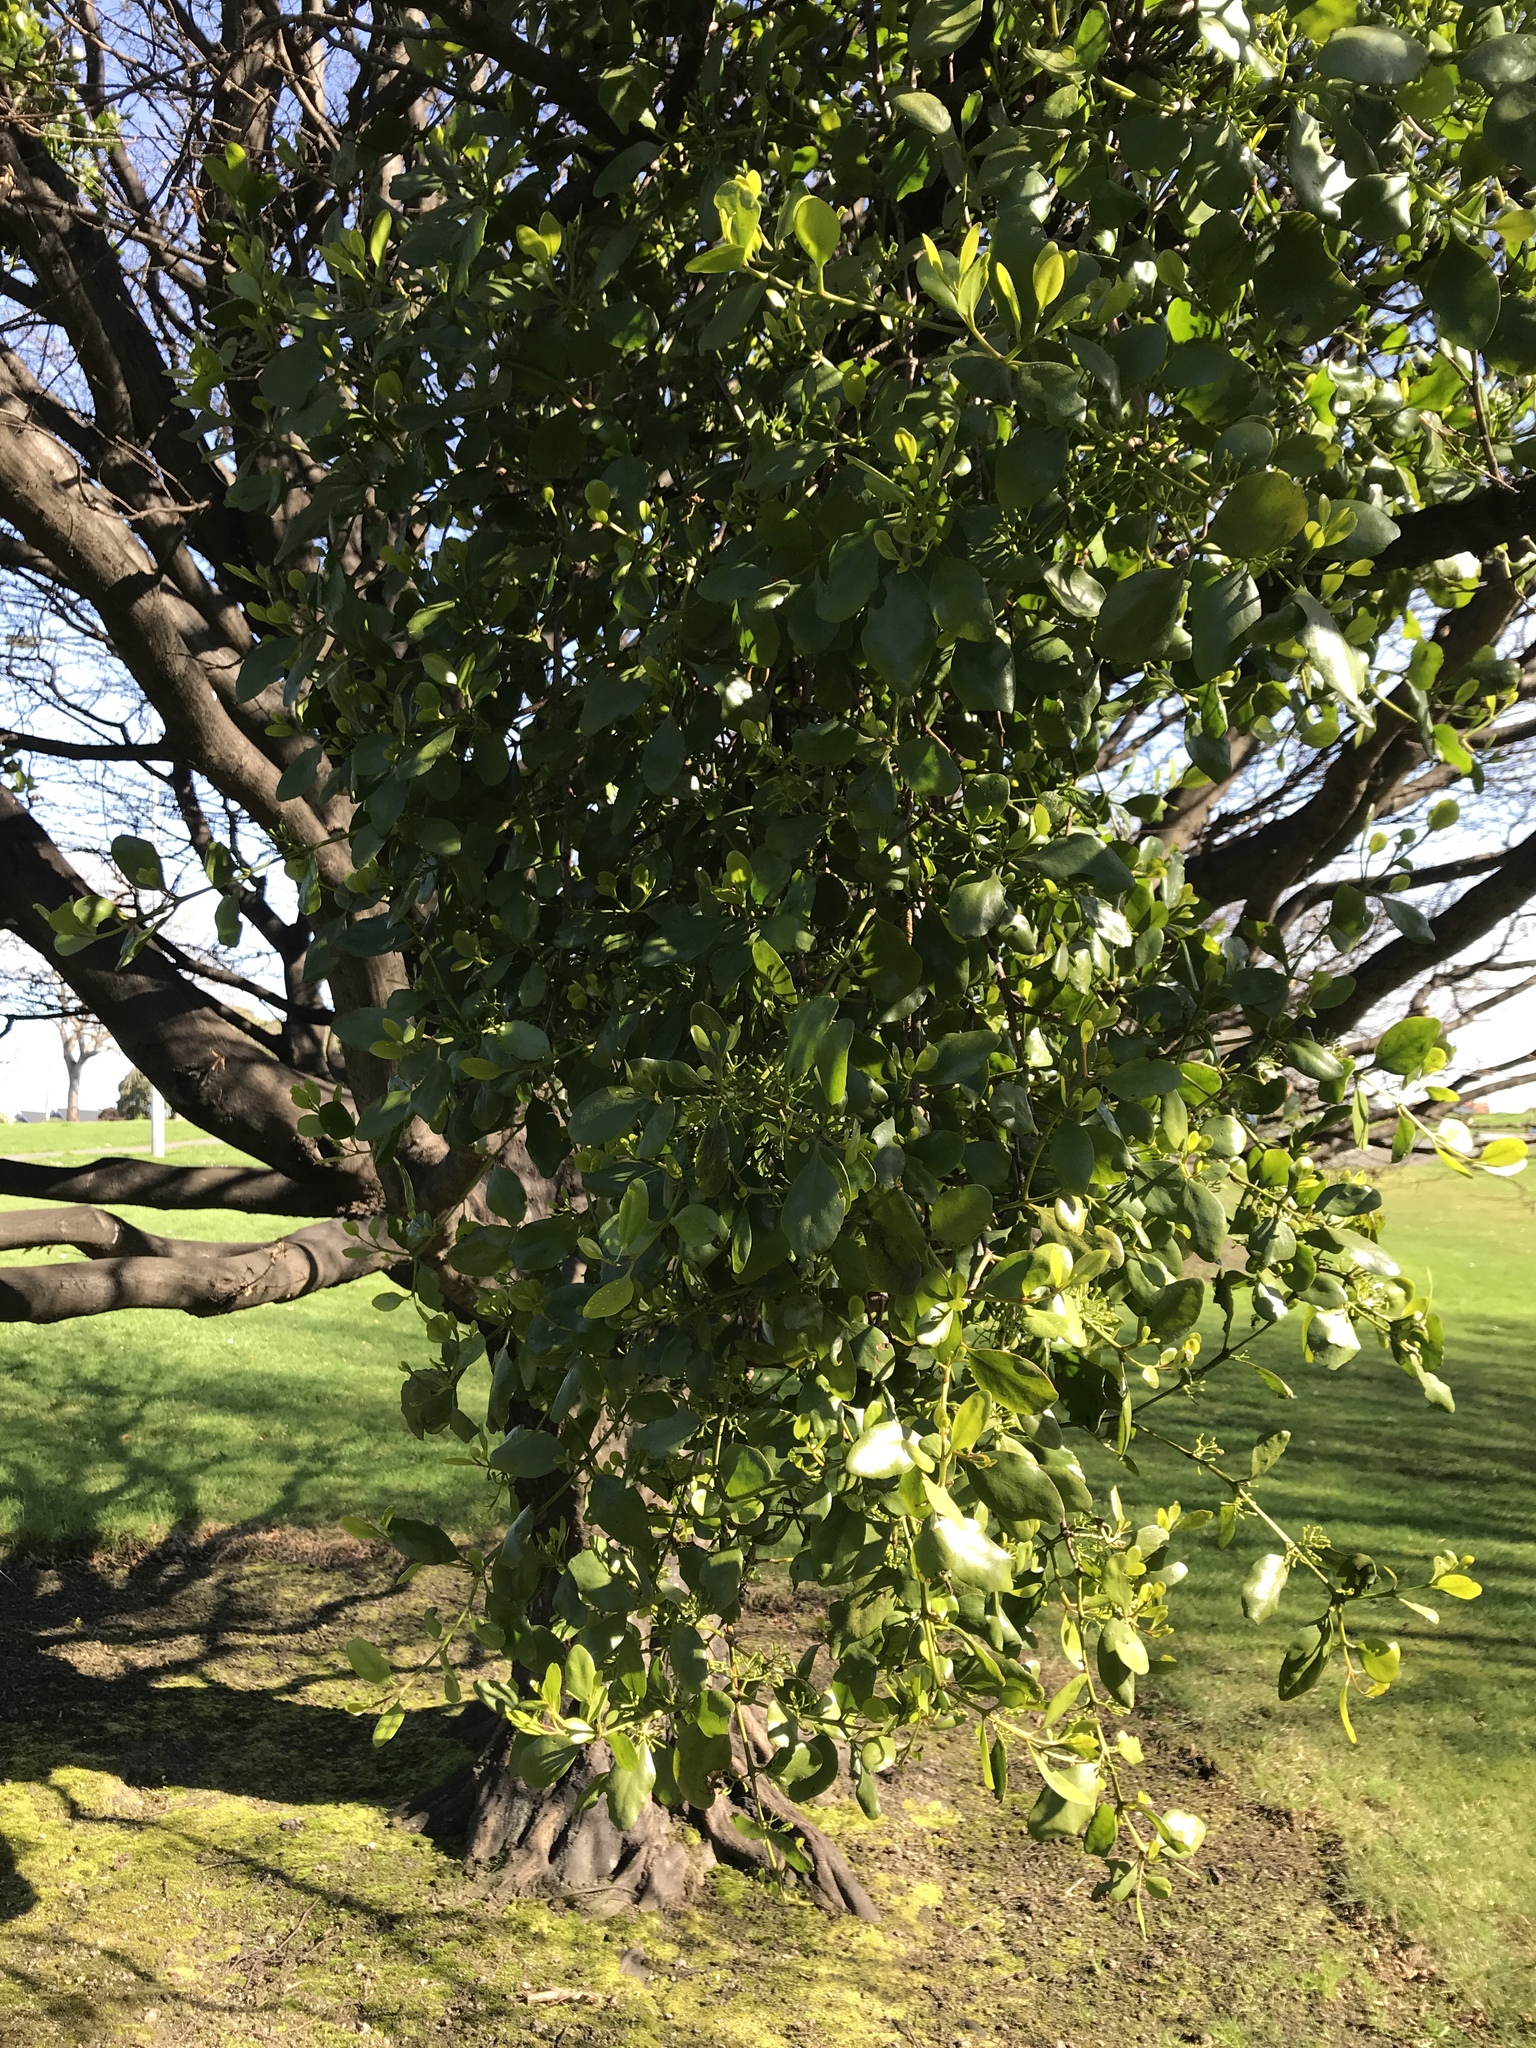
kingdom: Plantae
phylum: Tracheophyta
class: Magnoliopsida
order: Santalales
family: Loranthaceae
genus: Ileostylus
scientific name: Ileostylus micranthus
